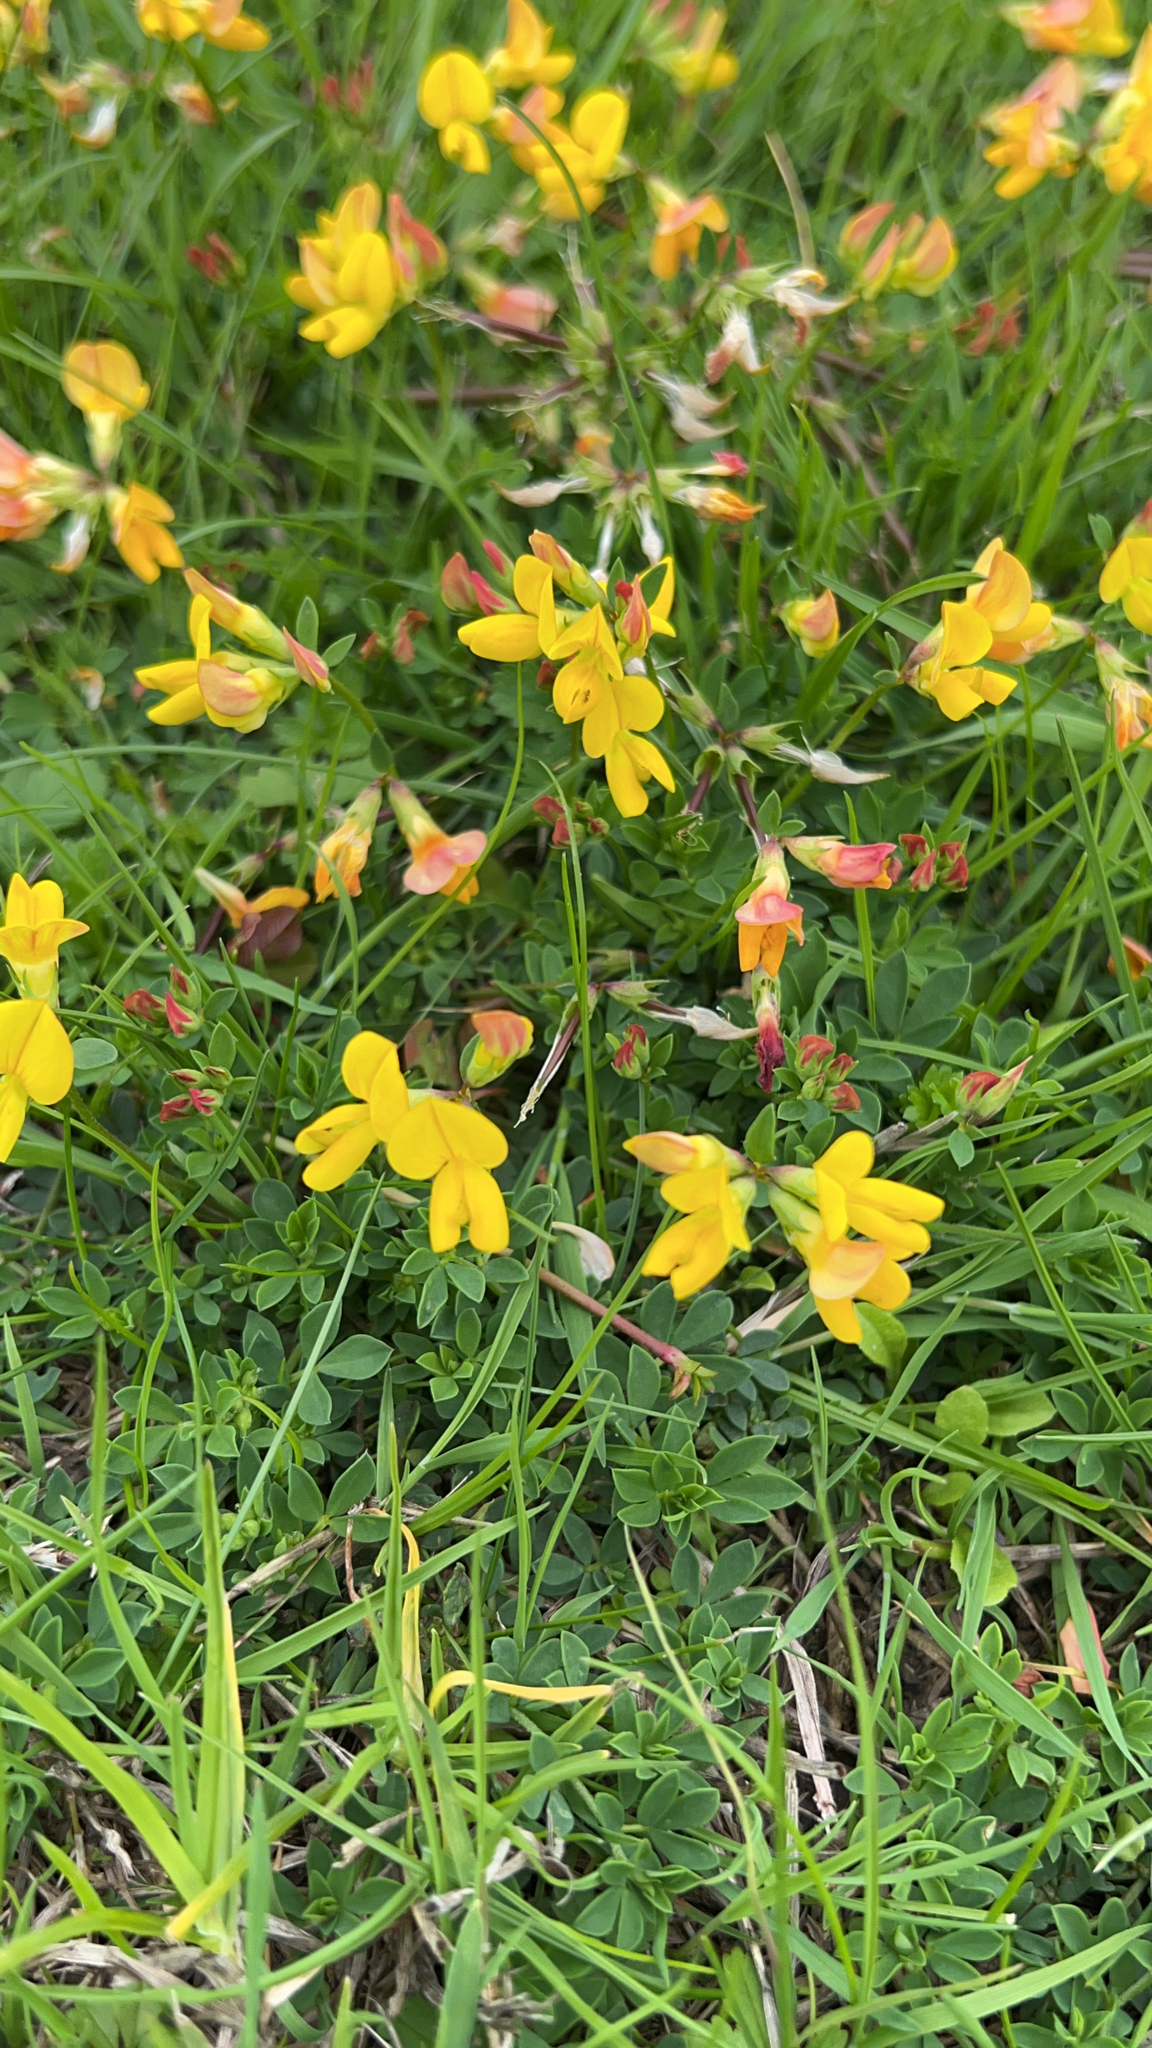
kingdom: Plantae
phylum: Tracheophyta
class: Magnoliopsida
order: Fabales
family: Fabaceae
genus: Lotus
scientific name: Lotus corniculatus
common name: Common bird's-foot-trefoil
